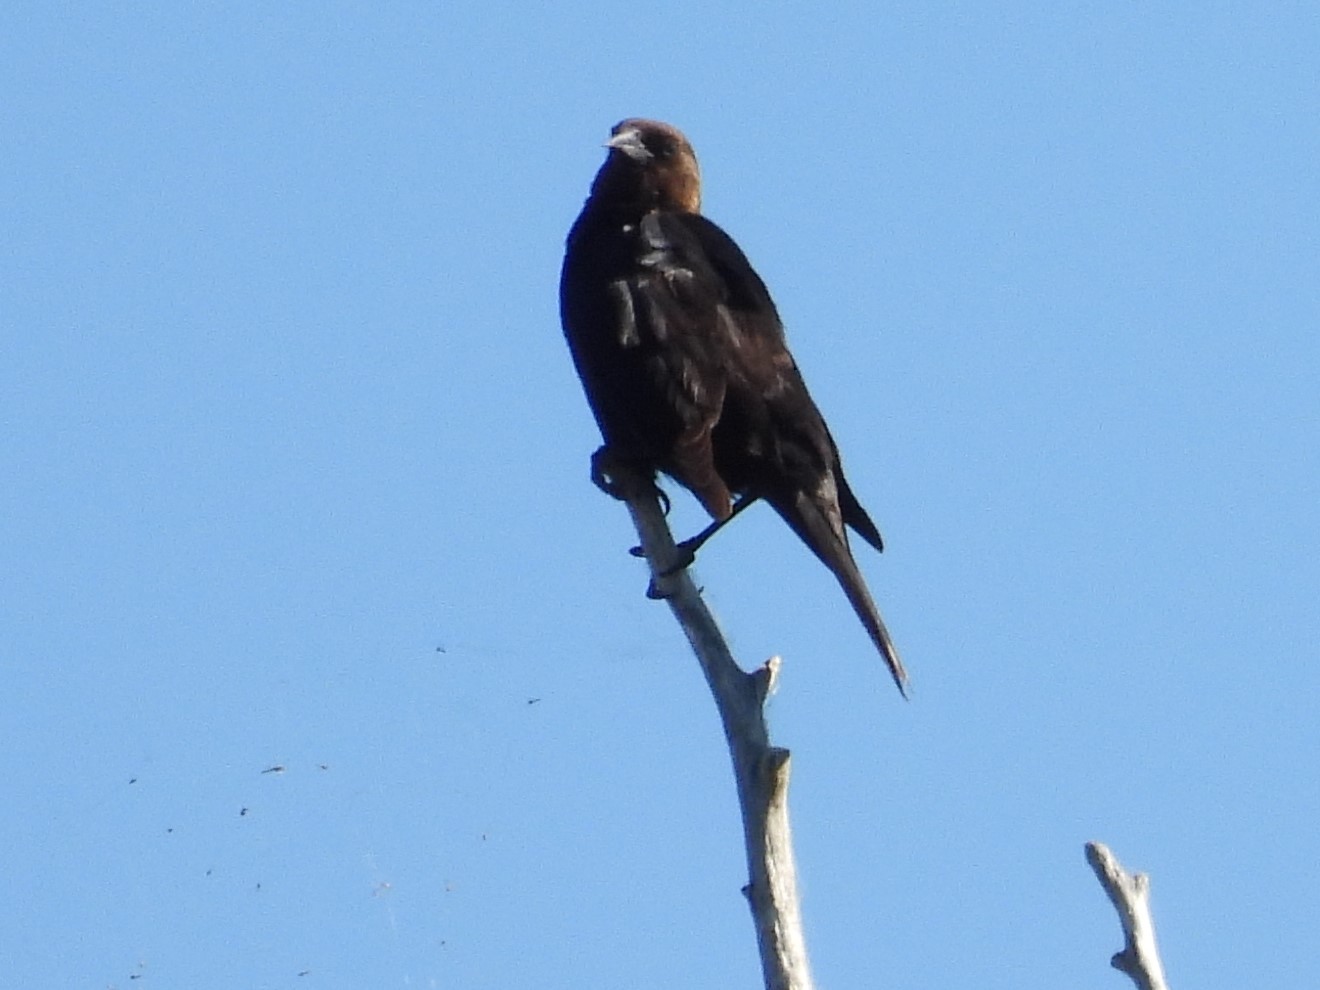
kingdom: Animalia
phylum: Chordata
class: Aves
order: Passeriformes
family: Icteridae
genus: Molothrus
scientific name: Molothrus ater
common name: Brown-headed cowbird
